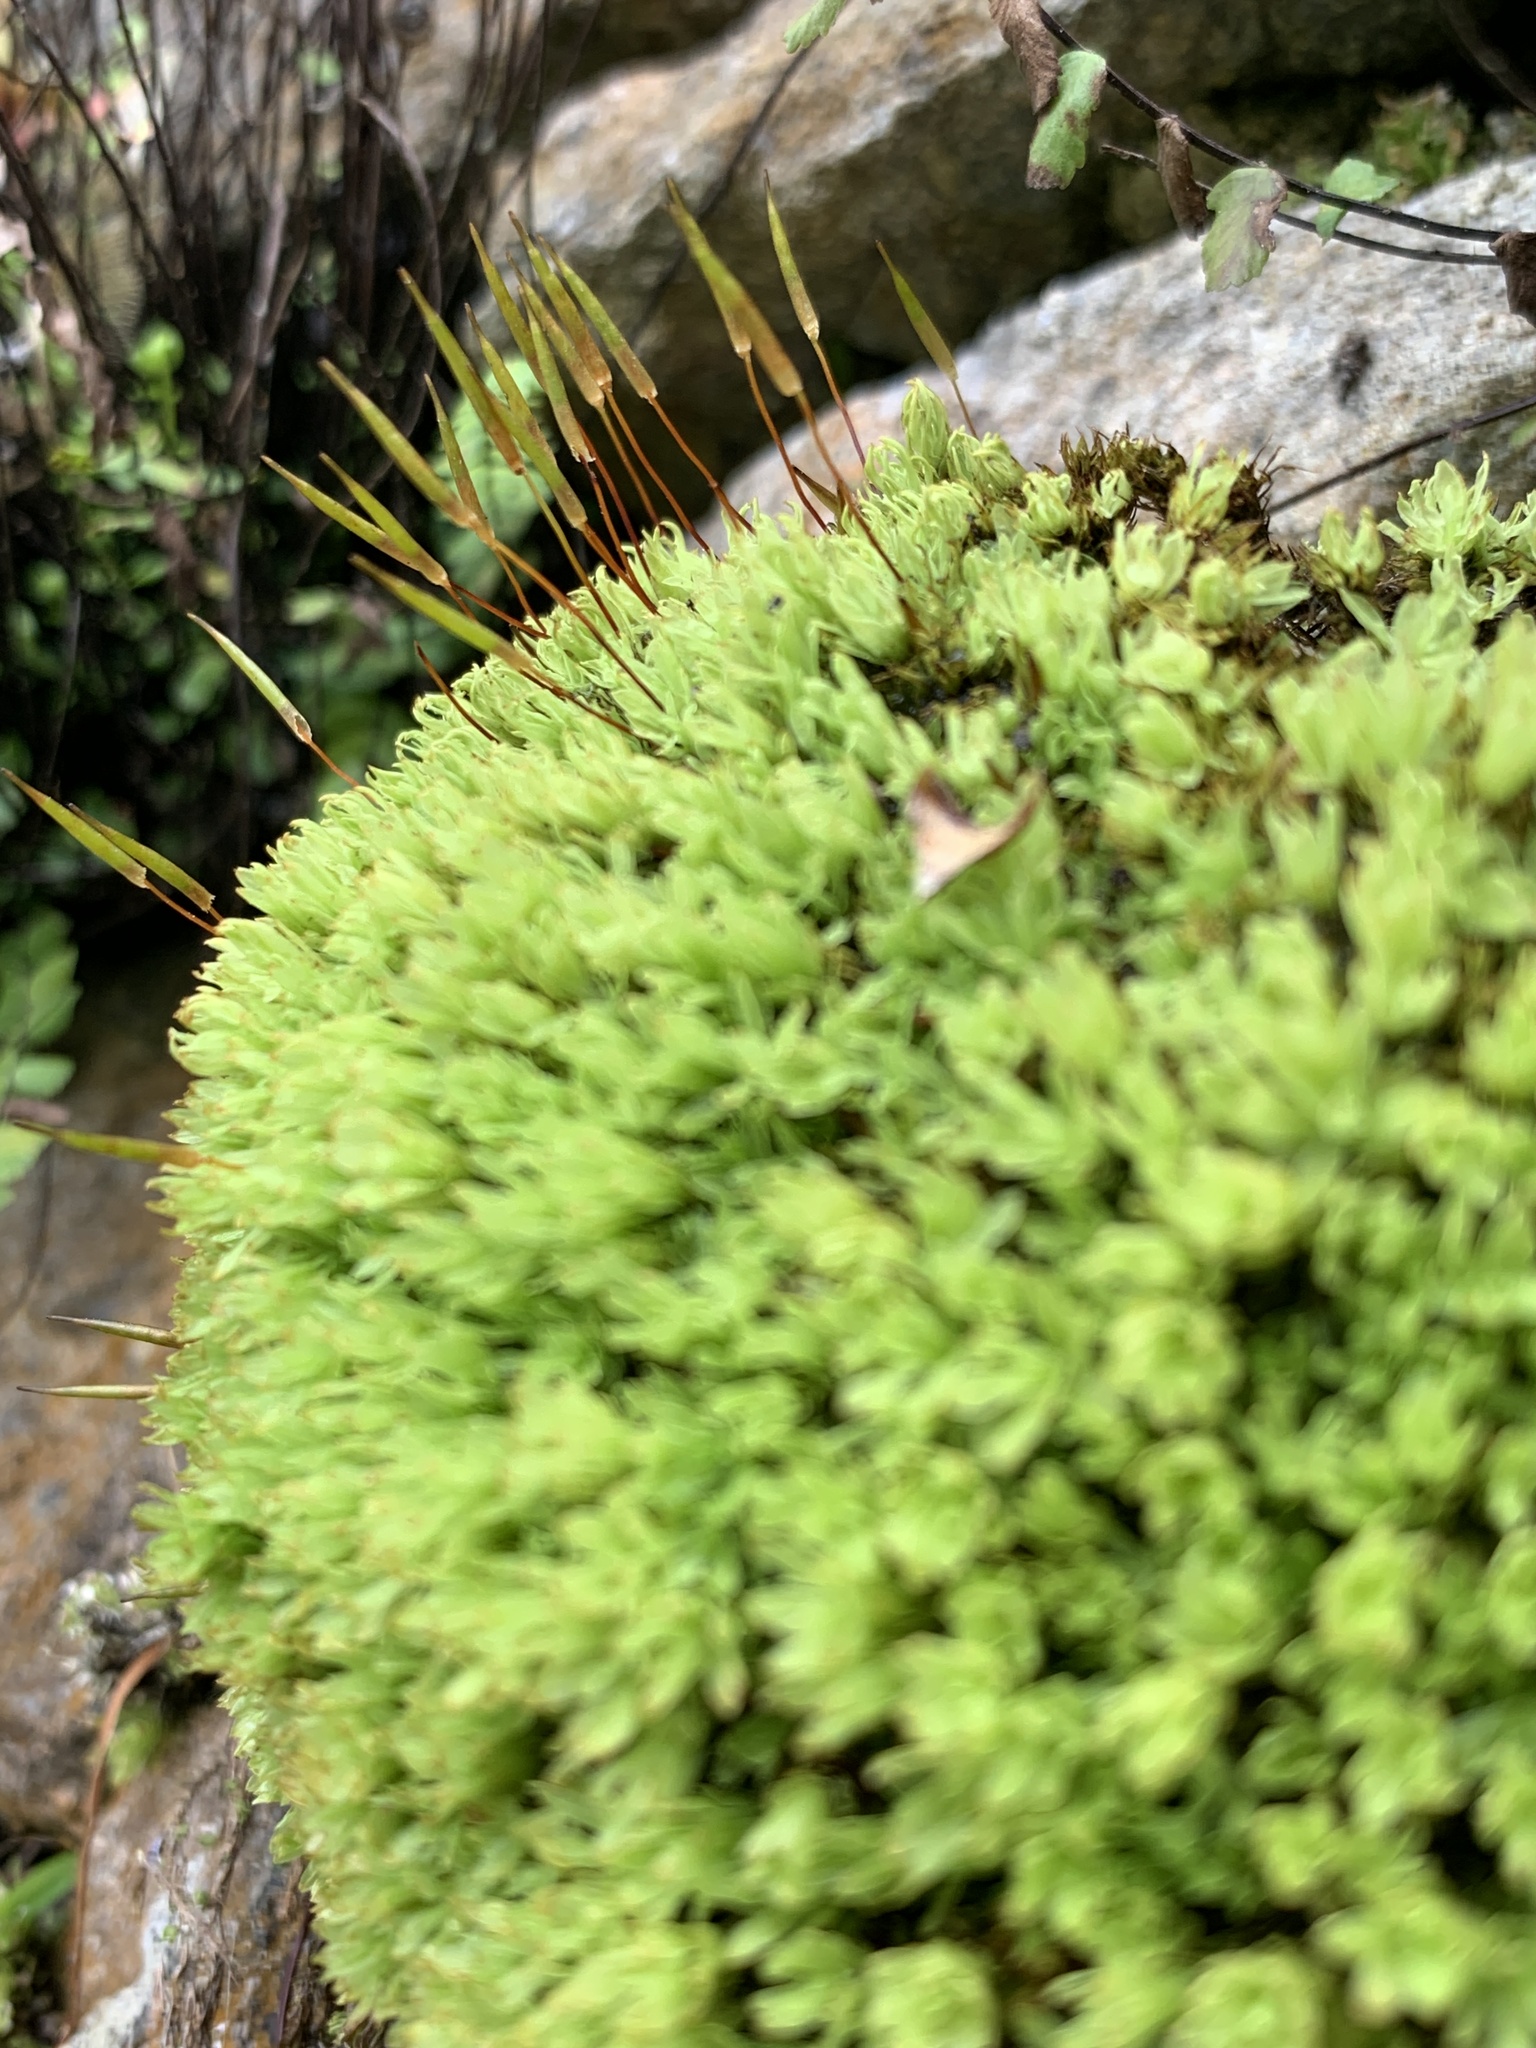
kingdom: Plantae
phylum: Bryophyta
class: Bryopsida
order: Encalyptales
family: Encalyptaceae
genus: Encalypta
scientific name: Encalypta streptocarpa
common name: Spiral extinguisher-moss
